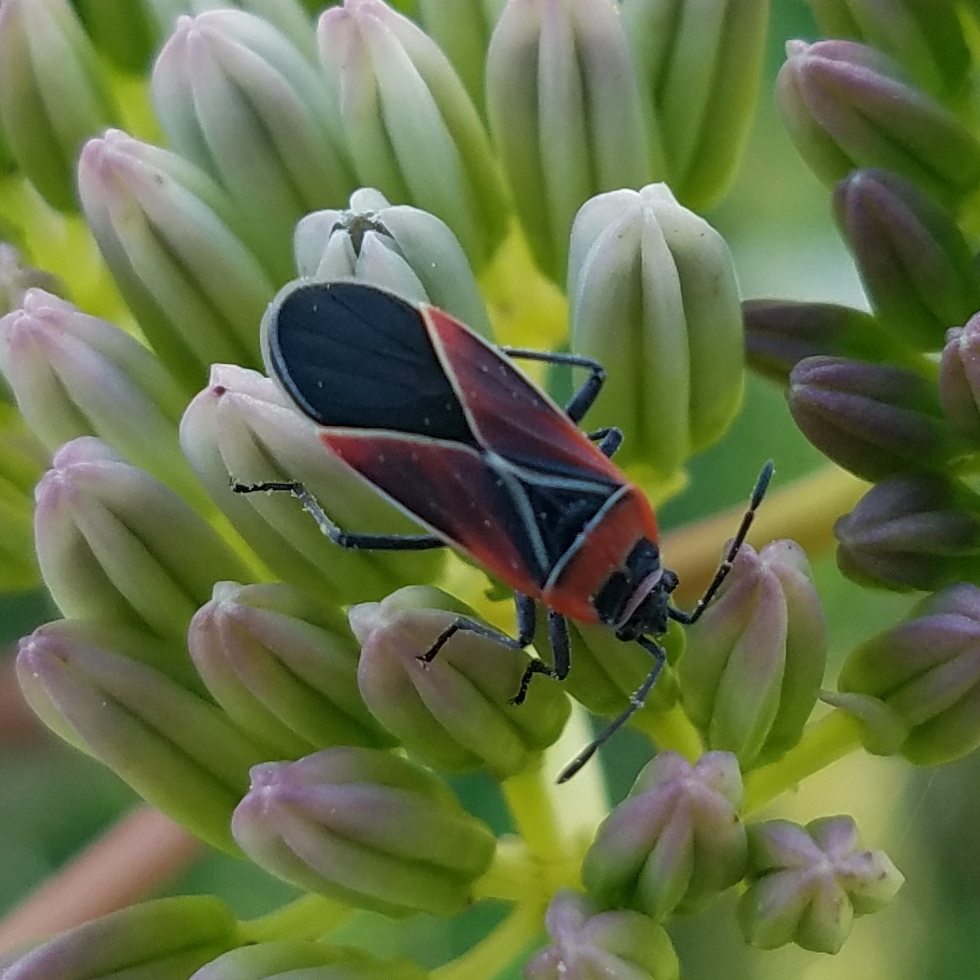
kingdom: Animalia
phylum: Arthropoda
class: Insecta
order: Hemiptera
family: Lygaeidae
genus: Neacoryphus
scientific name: Neacoryphus bicrucis
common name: Lygaeid bug
